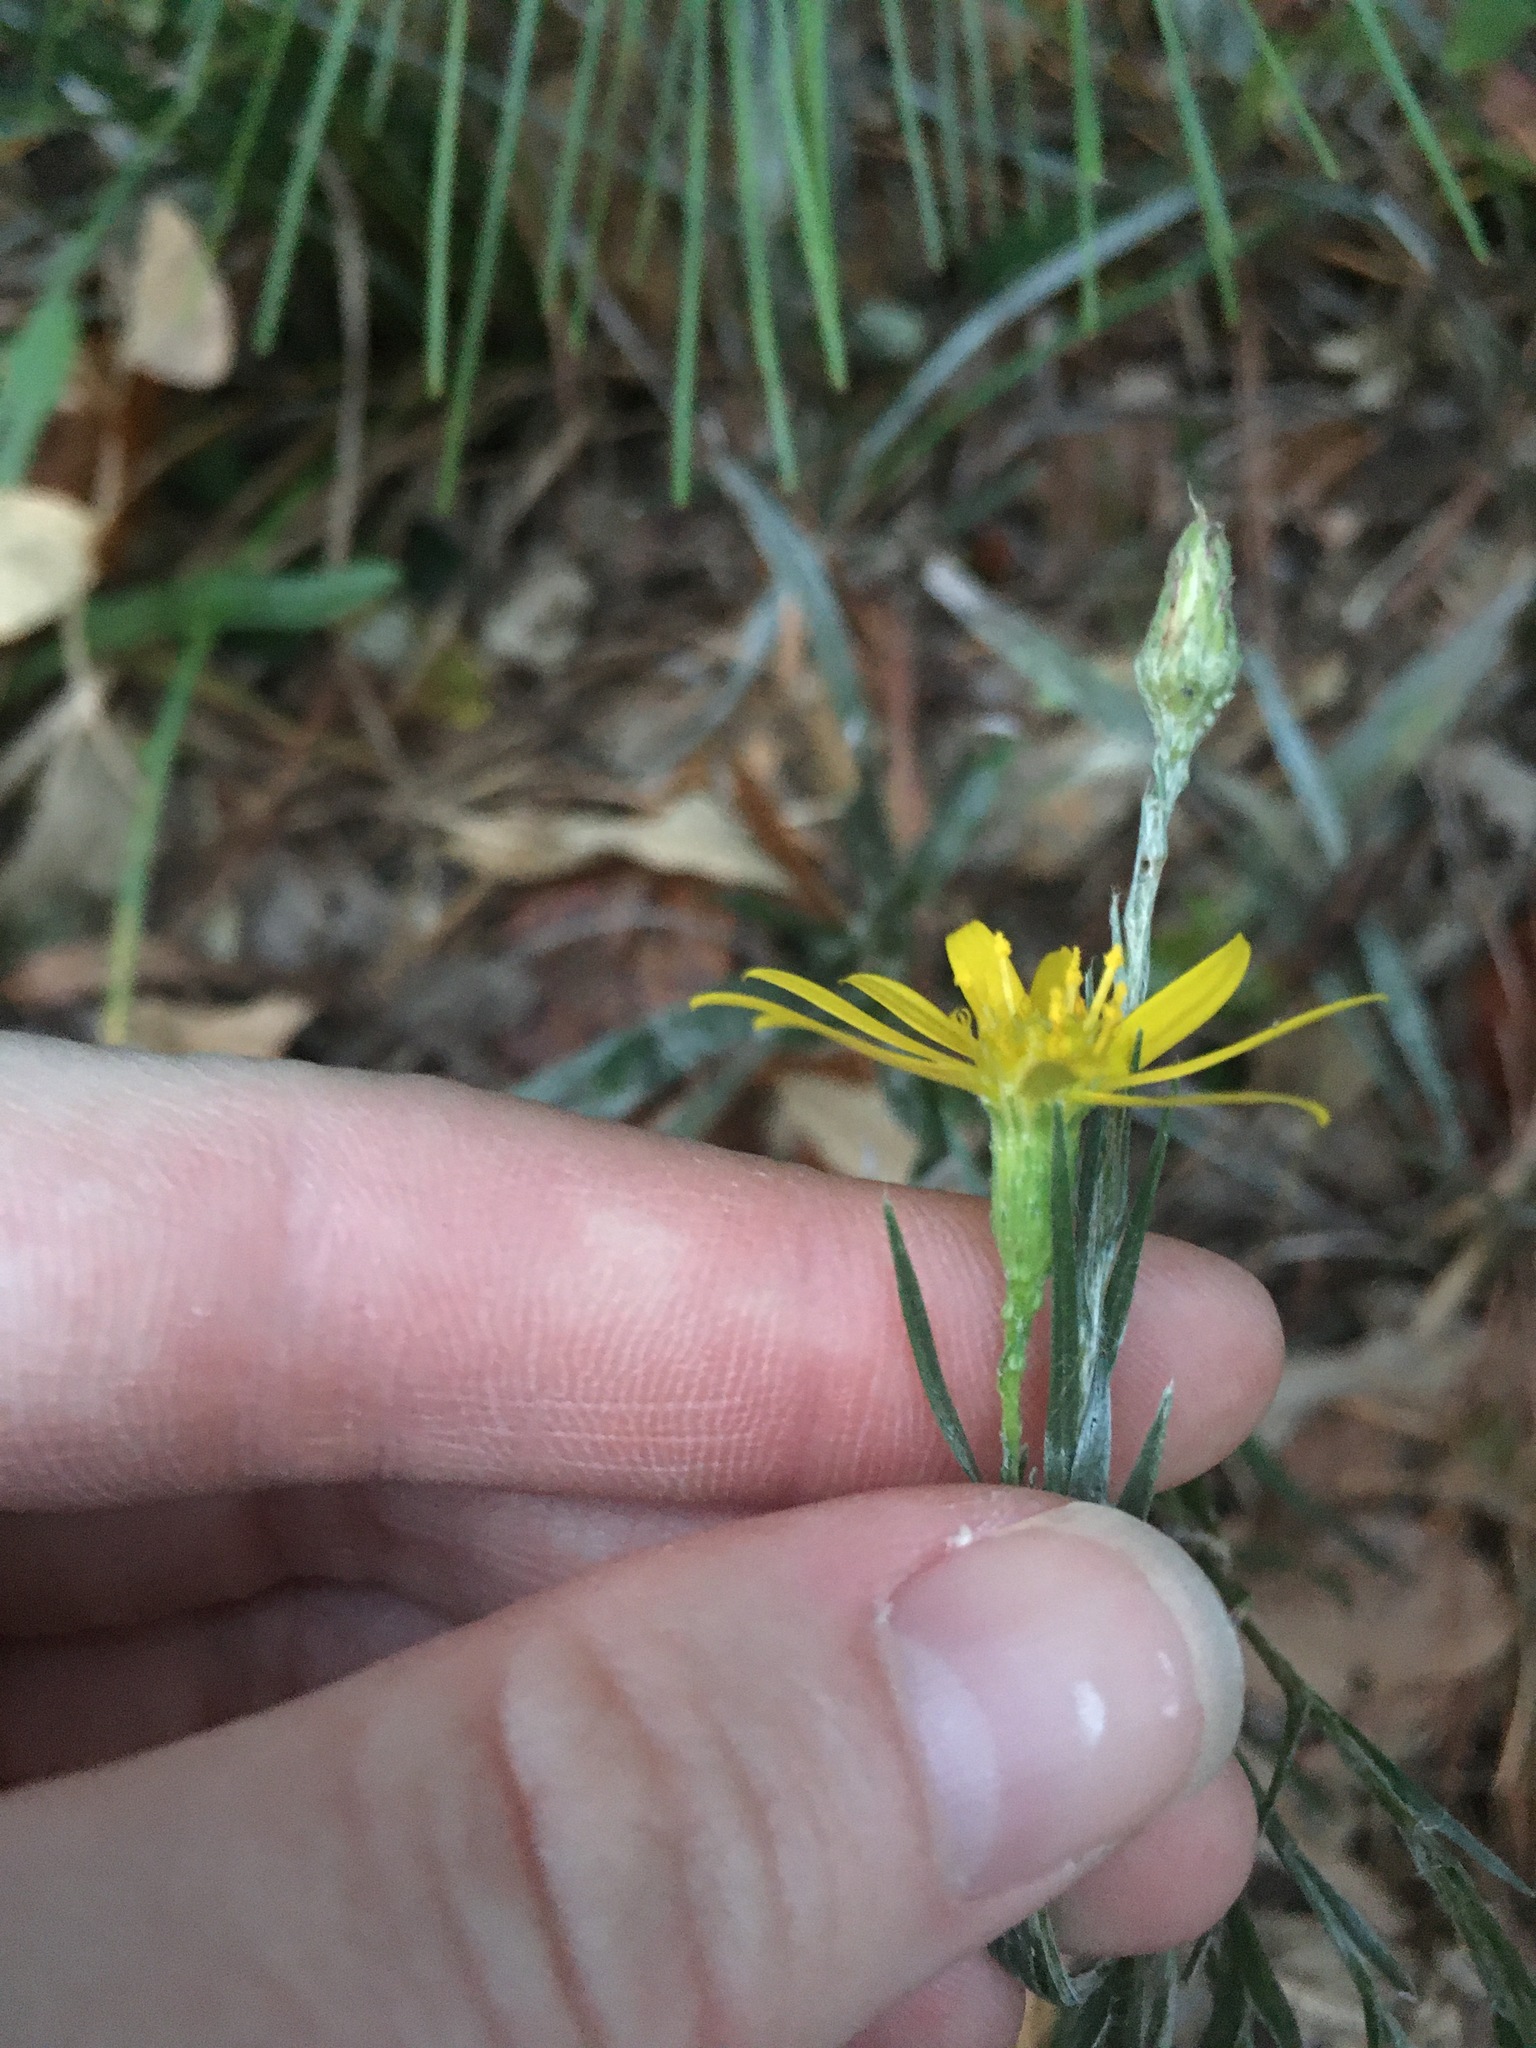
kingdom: Plantae
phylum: Tracheophyta
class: Magnoliopsida
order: Asterales
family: Asteraceae
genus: Pityopsis
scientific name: Pityopsis graminifolia
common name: Grass-leaf golden-aster
